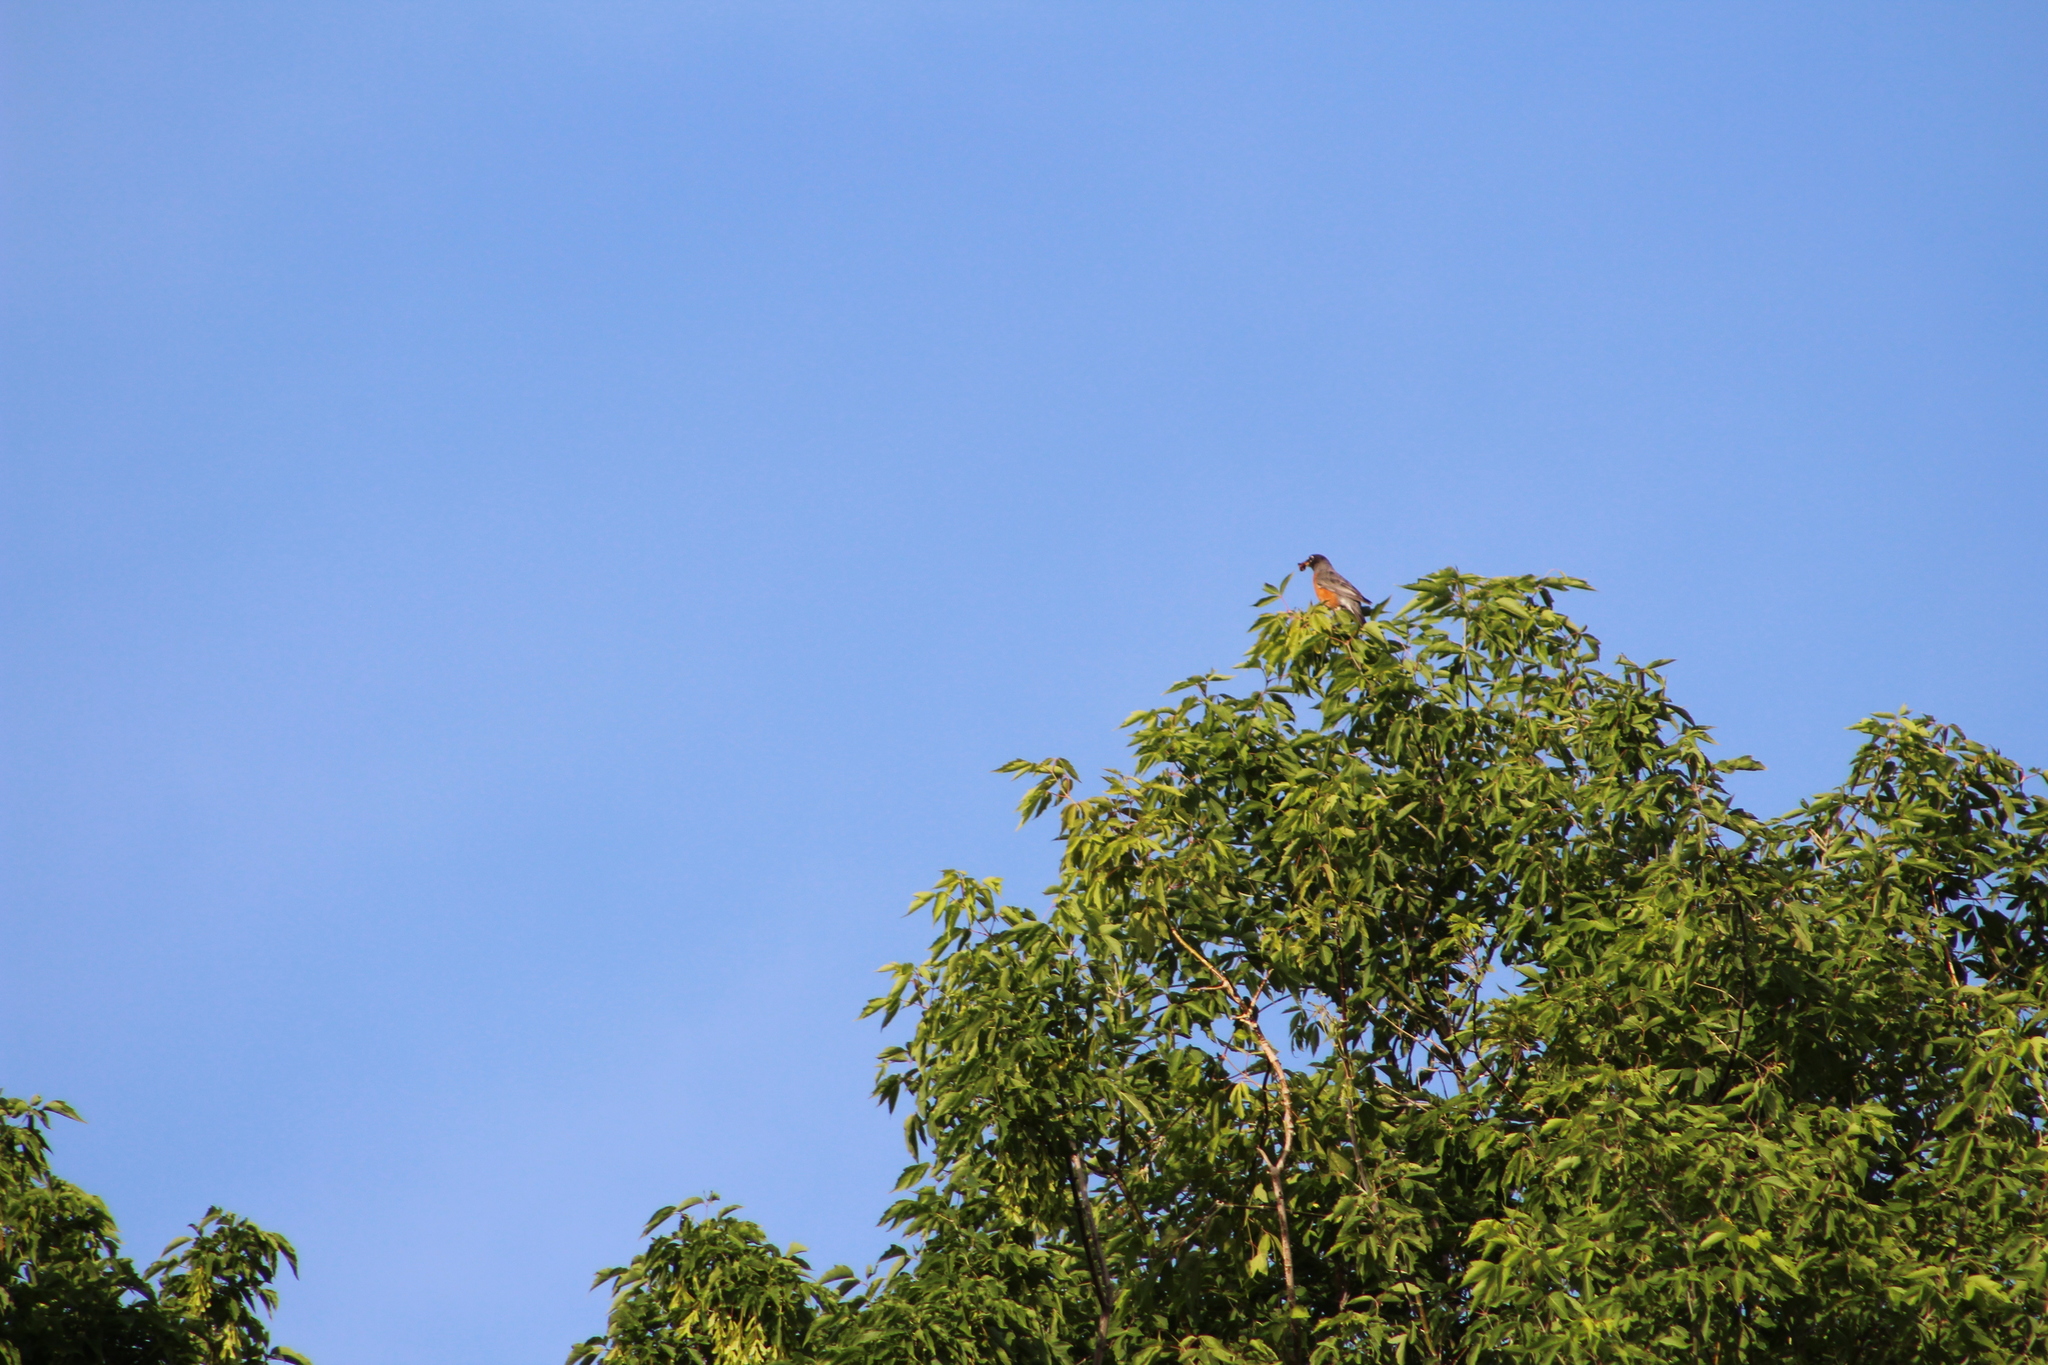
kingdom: Animalia
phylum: Chordata
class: Aves
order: Passeriformes
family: Turdidae
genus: Turdus
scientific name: Turdus migratorius
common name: American robin
